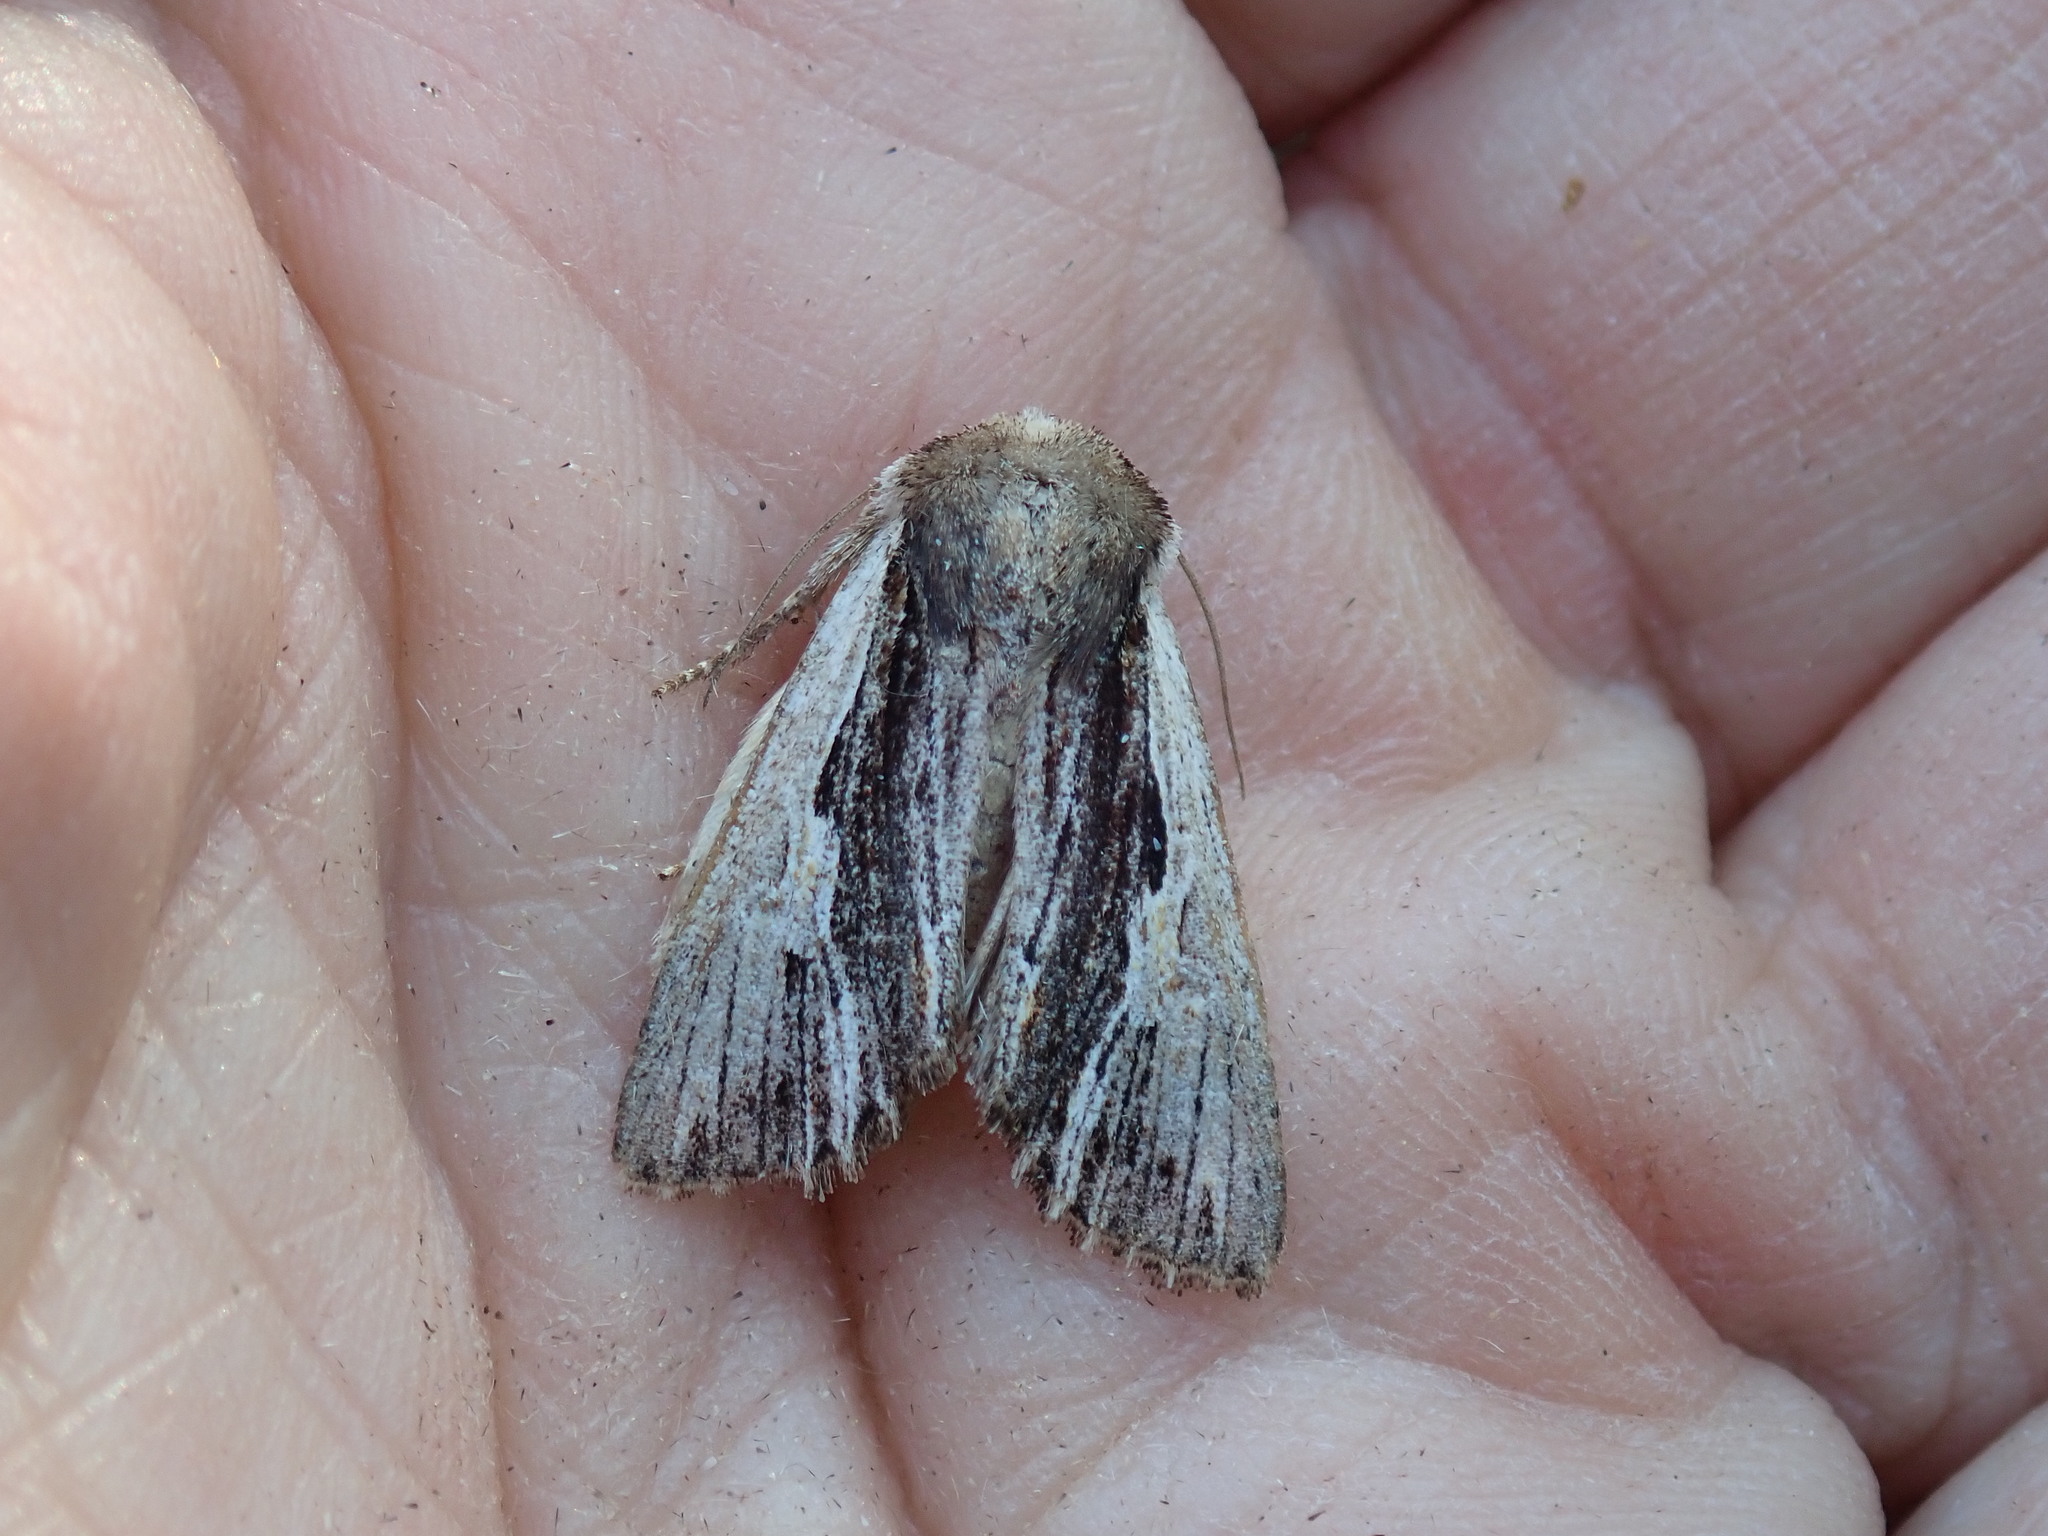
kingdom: Animalia
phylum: Arthropoda
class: Insecta
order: Lepidoptera
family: Noctuidae
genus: Achatia
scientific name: Achatia evicta
